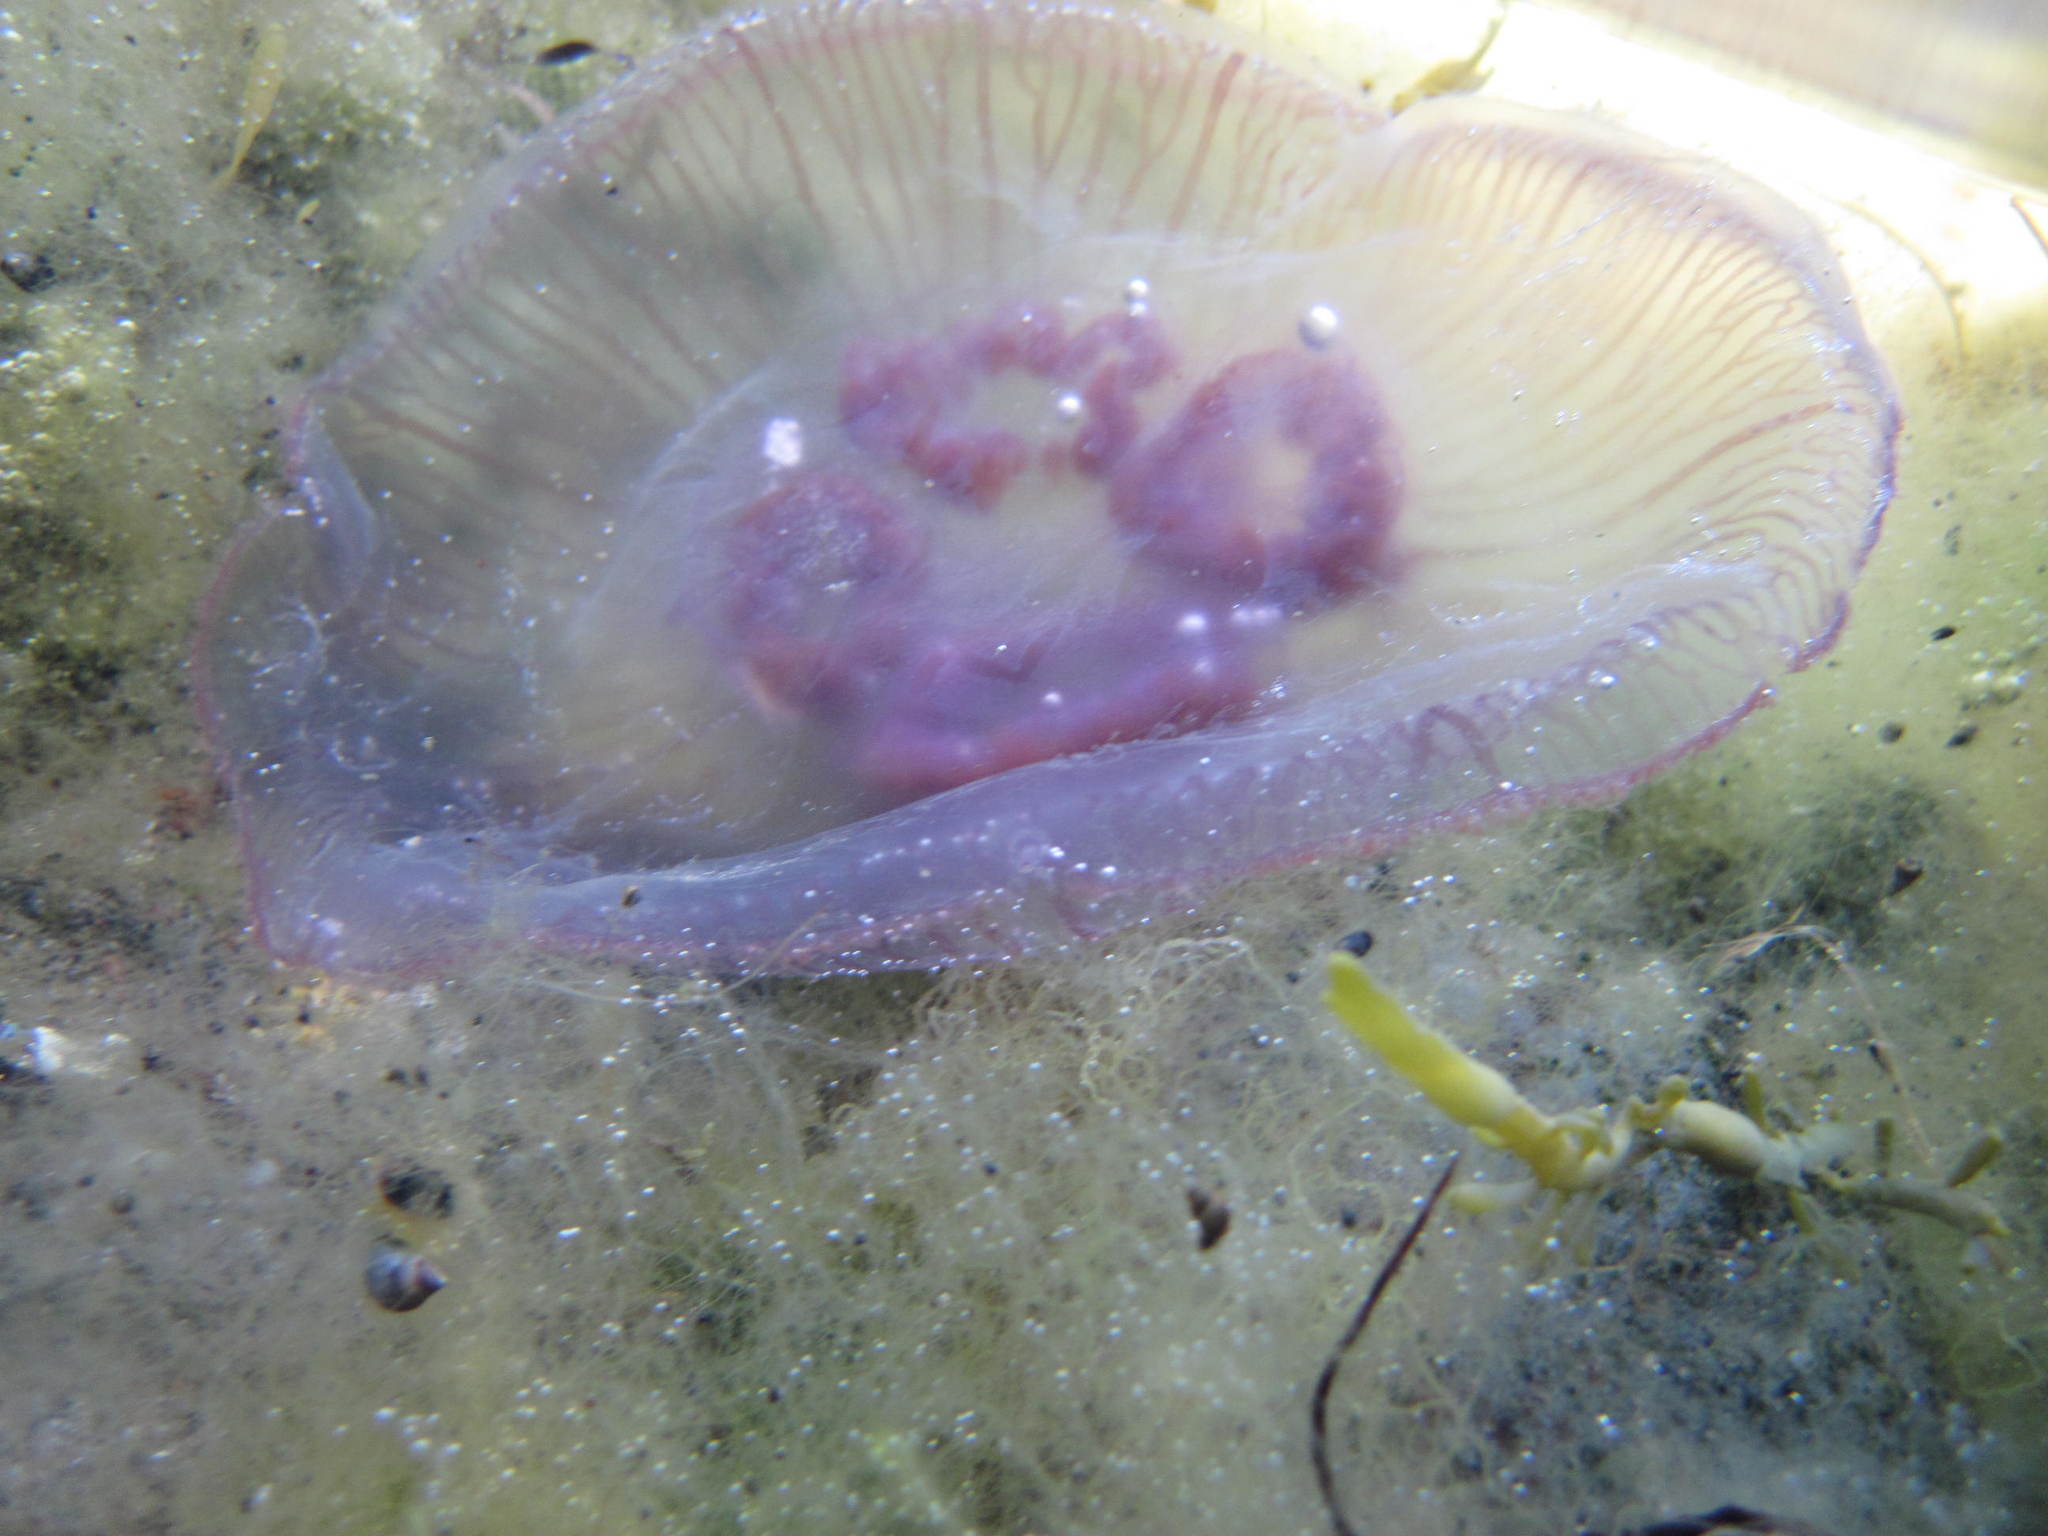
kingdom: Animalia
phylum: Cnidaria
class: Scyphozoa
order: Semaeostomeae
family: Ulmaridae
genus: Aurelia
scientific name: Aurelia aurita
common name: Moon jellyfish
